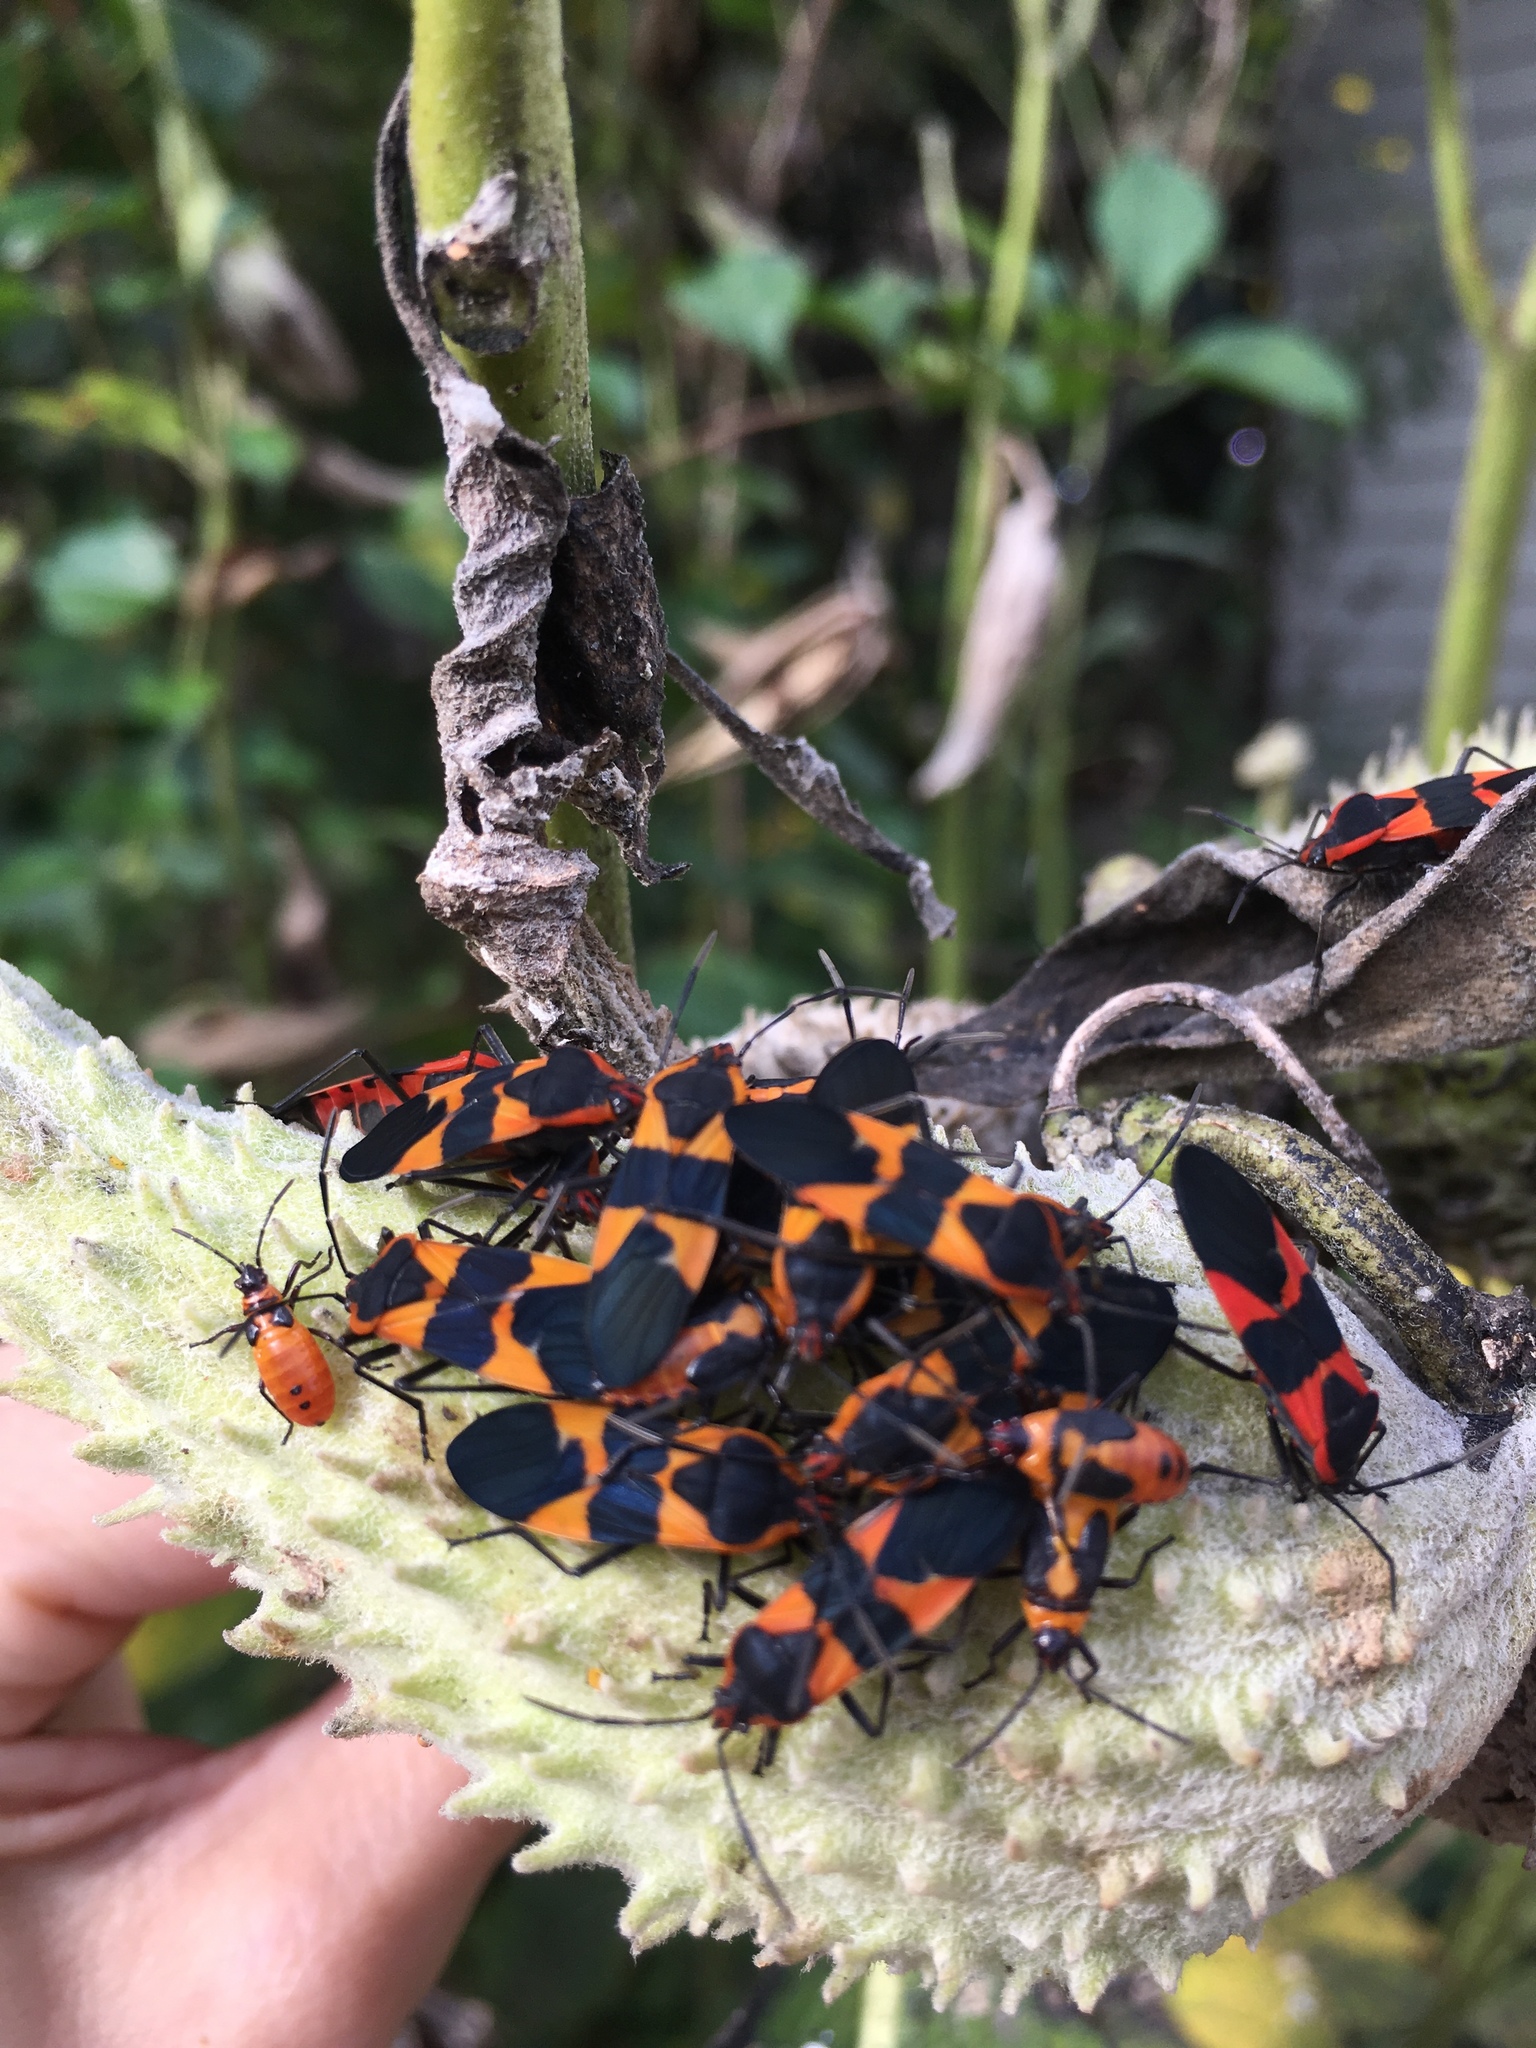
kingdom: Animalia
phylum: Arthropoda
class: Insecta
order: Hemiptera
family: Lygaeidae
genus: Oncopeltus
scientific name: Oncopeltus fasciatus
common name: Large milkweed bug
